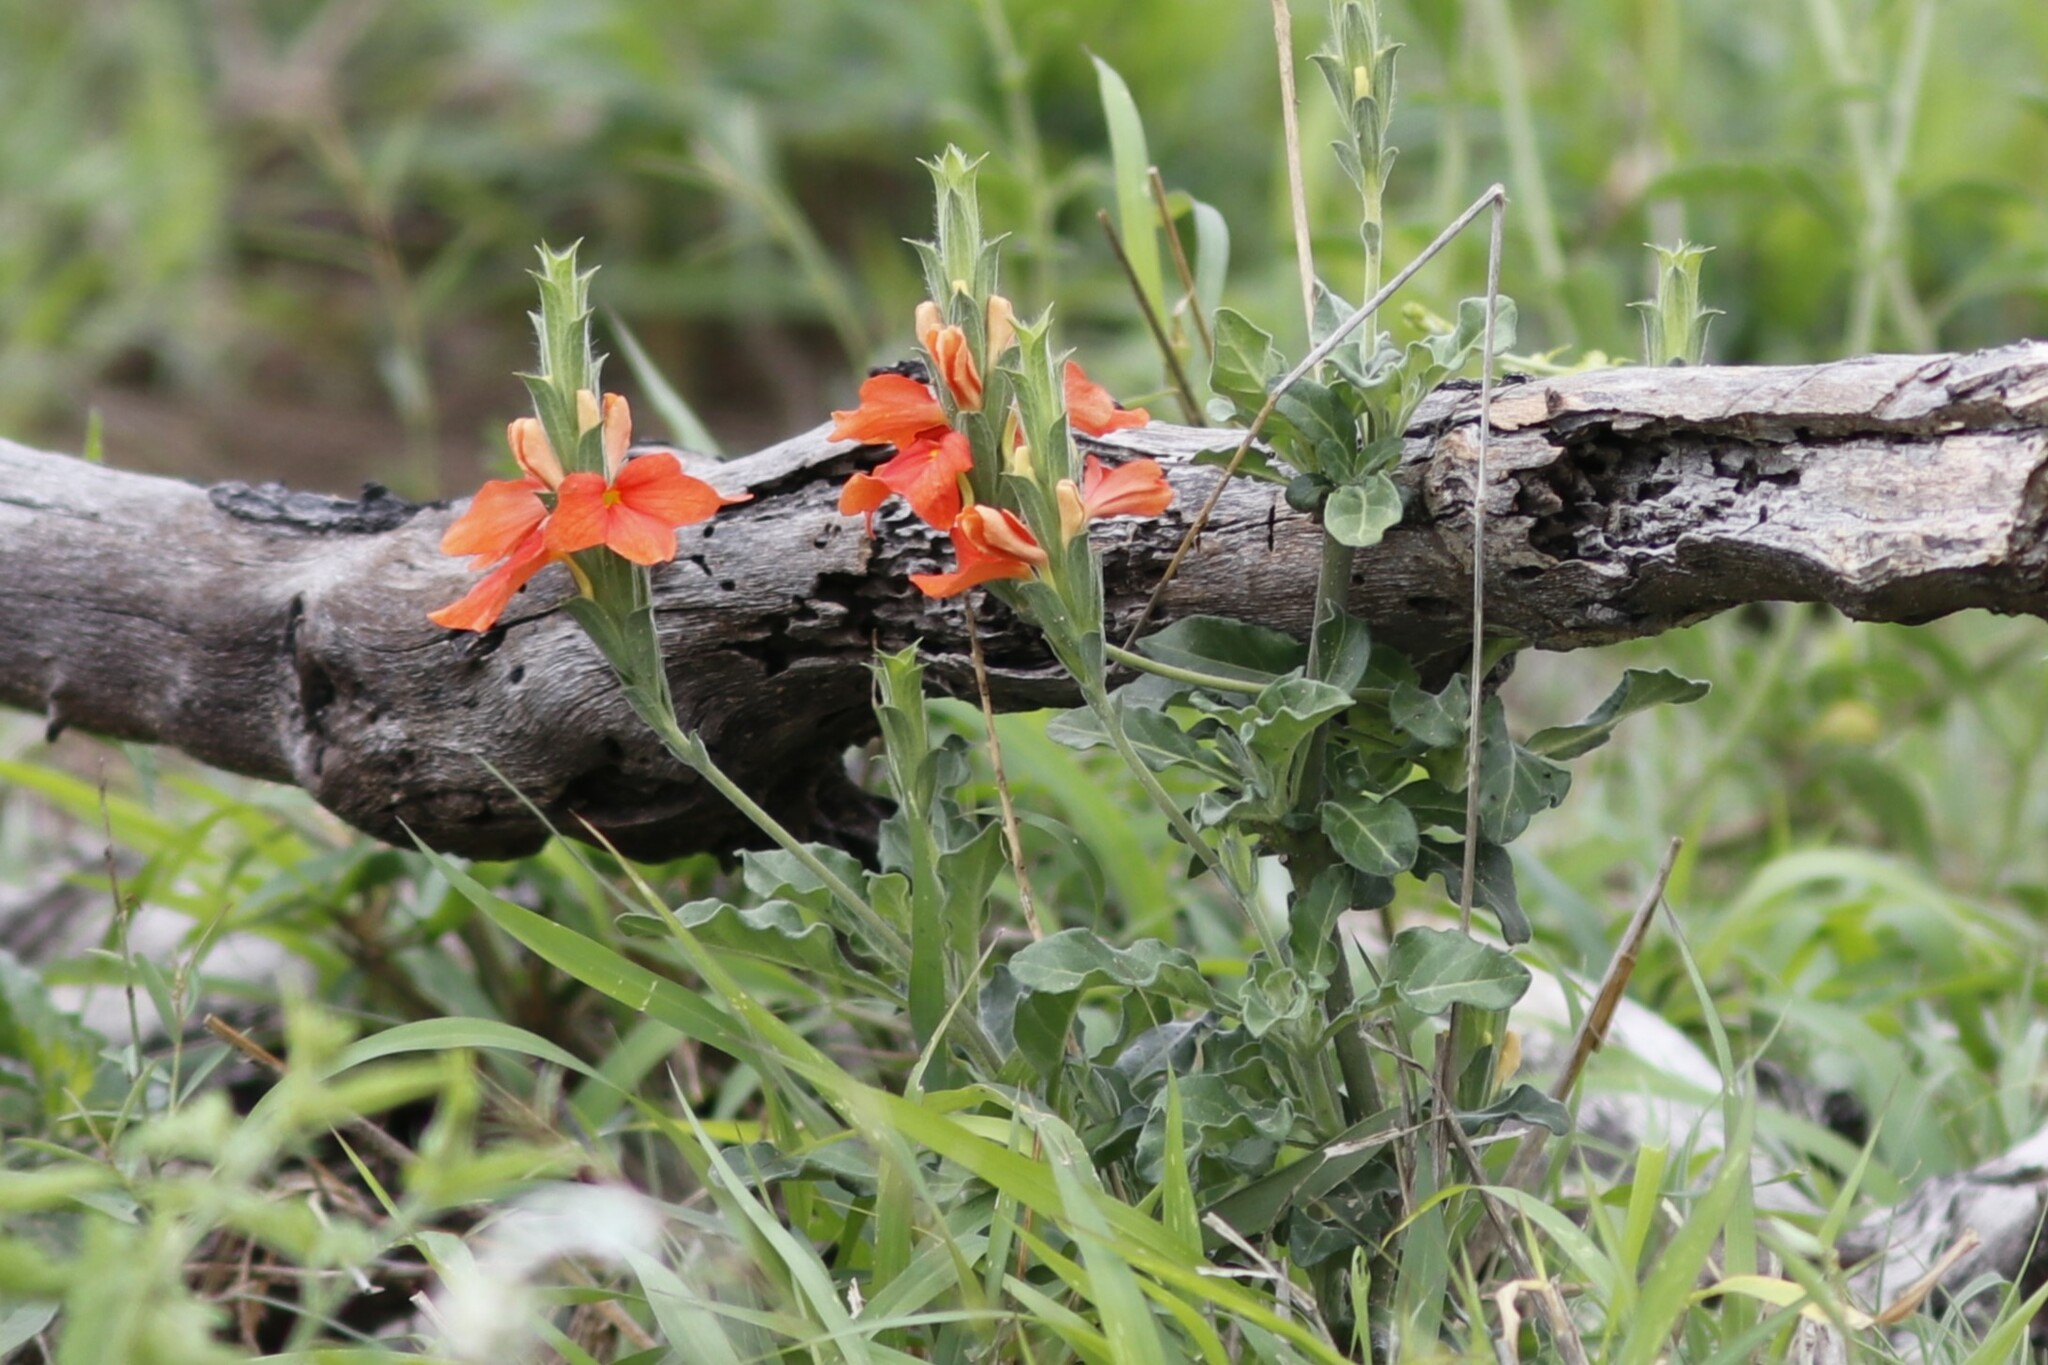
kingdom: Plantae
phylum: Tracheophyta
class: Magnoliopsida
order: Lamiales
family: Acanthaceae
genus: Crossandra
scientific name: Crossandra mucronata
